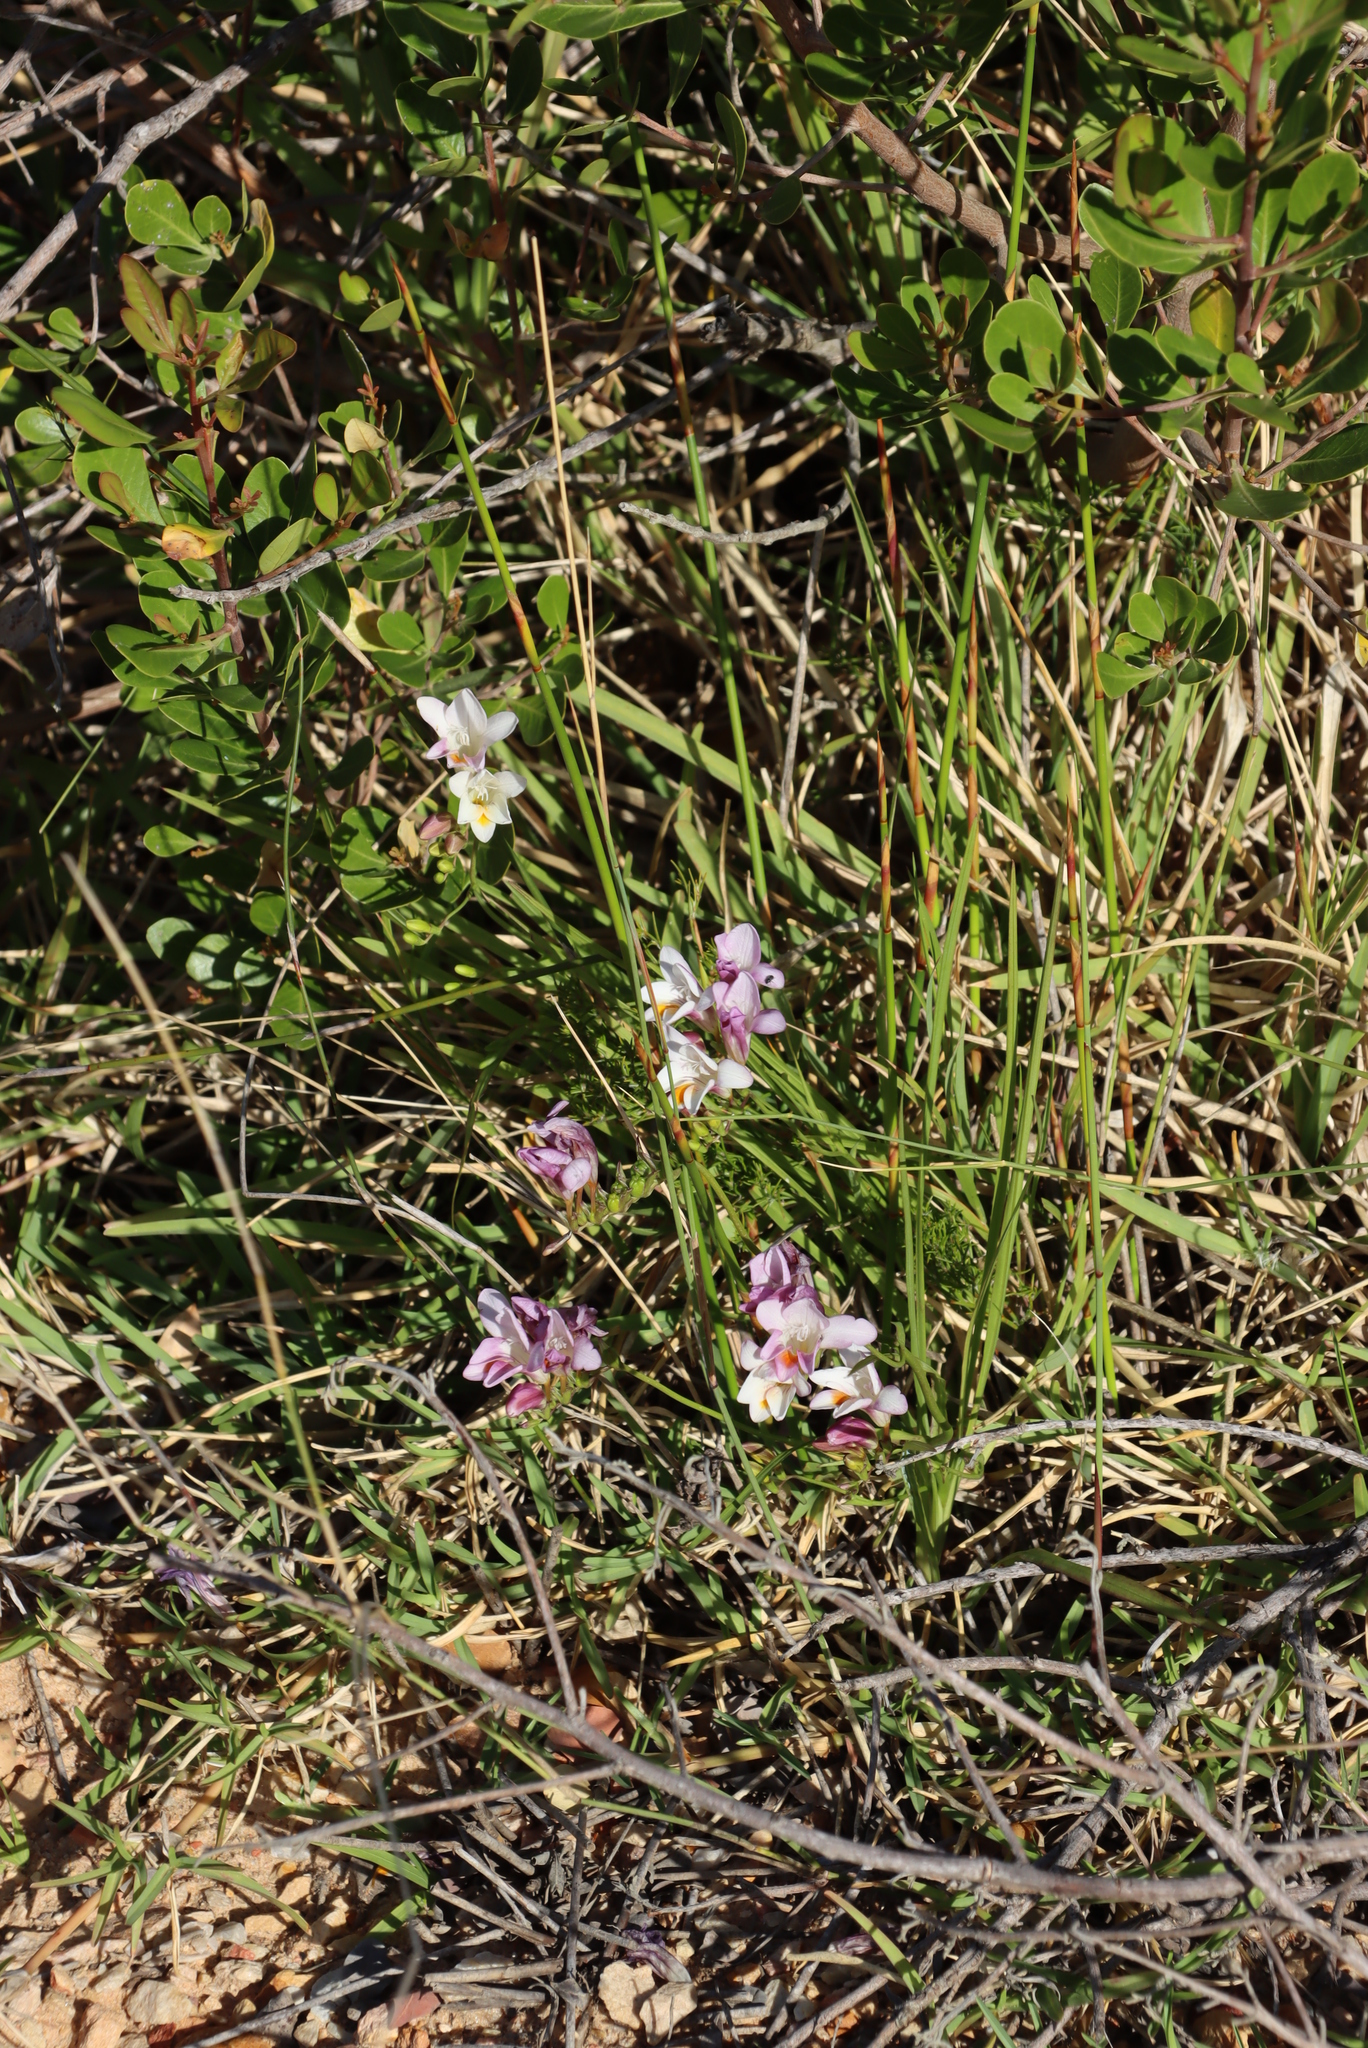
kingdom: Plantae
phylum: Tracheophyta
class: Liliopsida
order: Asparagales
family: Iridaceae
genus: Freesia
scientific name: Freesia leichtlinii
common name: Freesia
